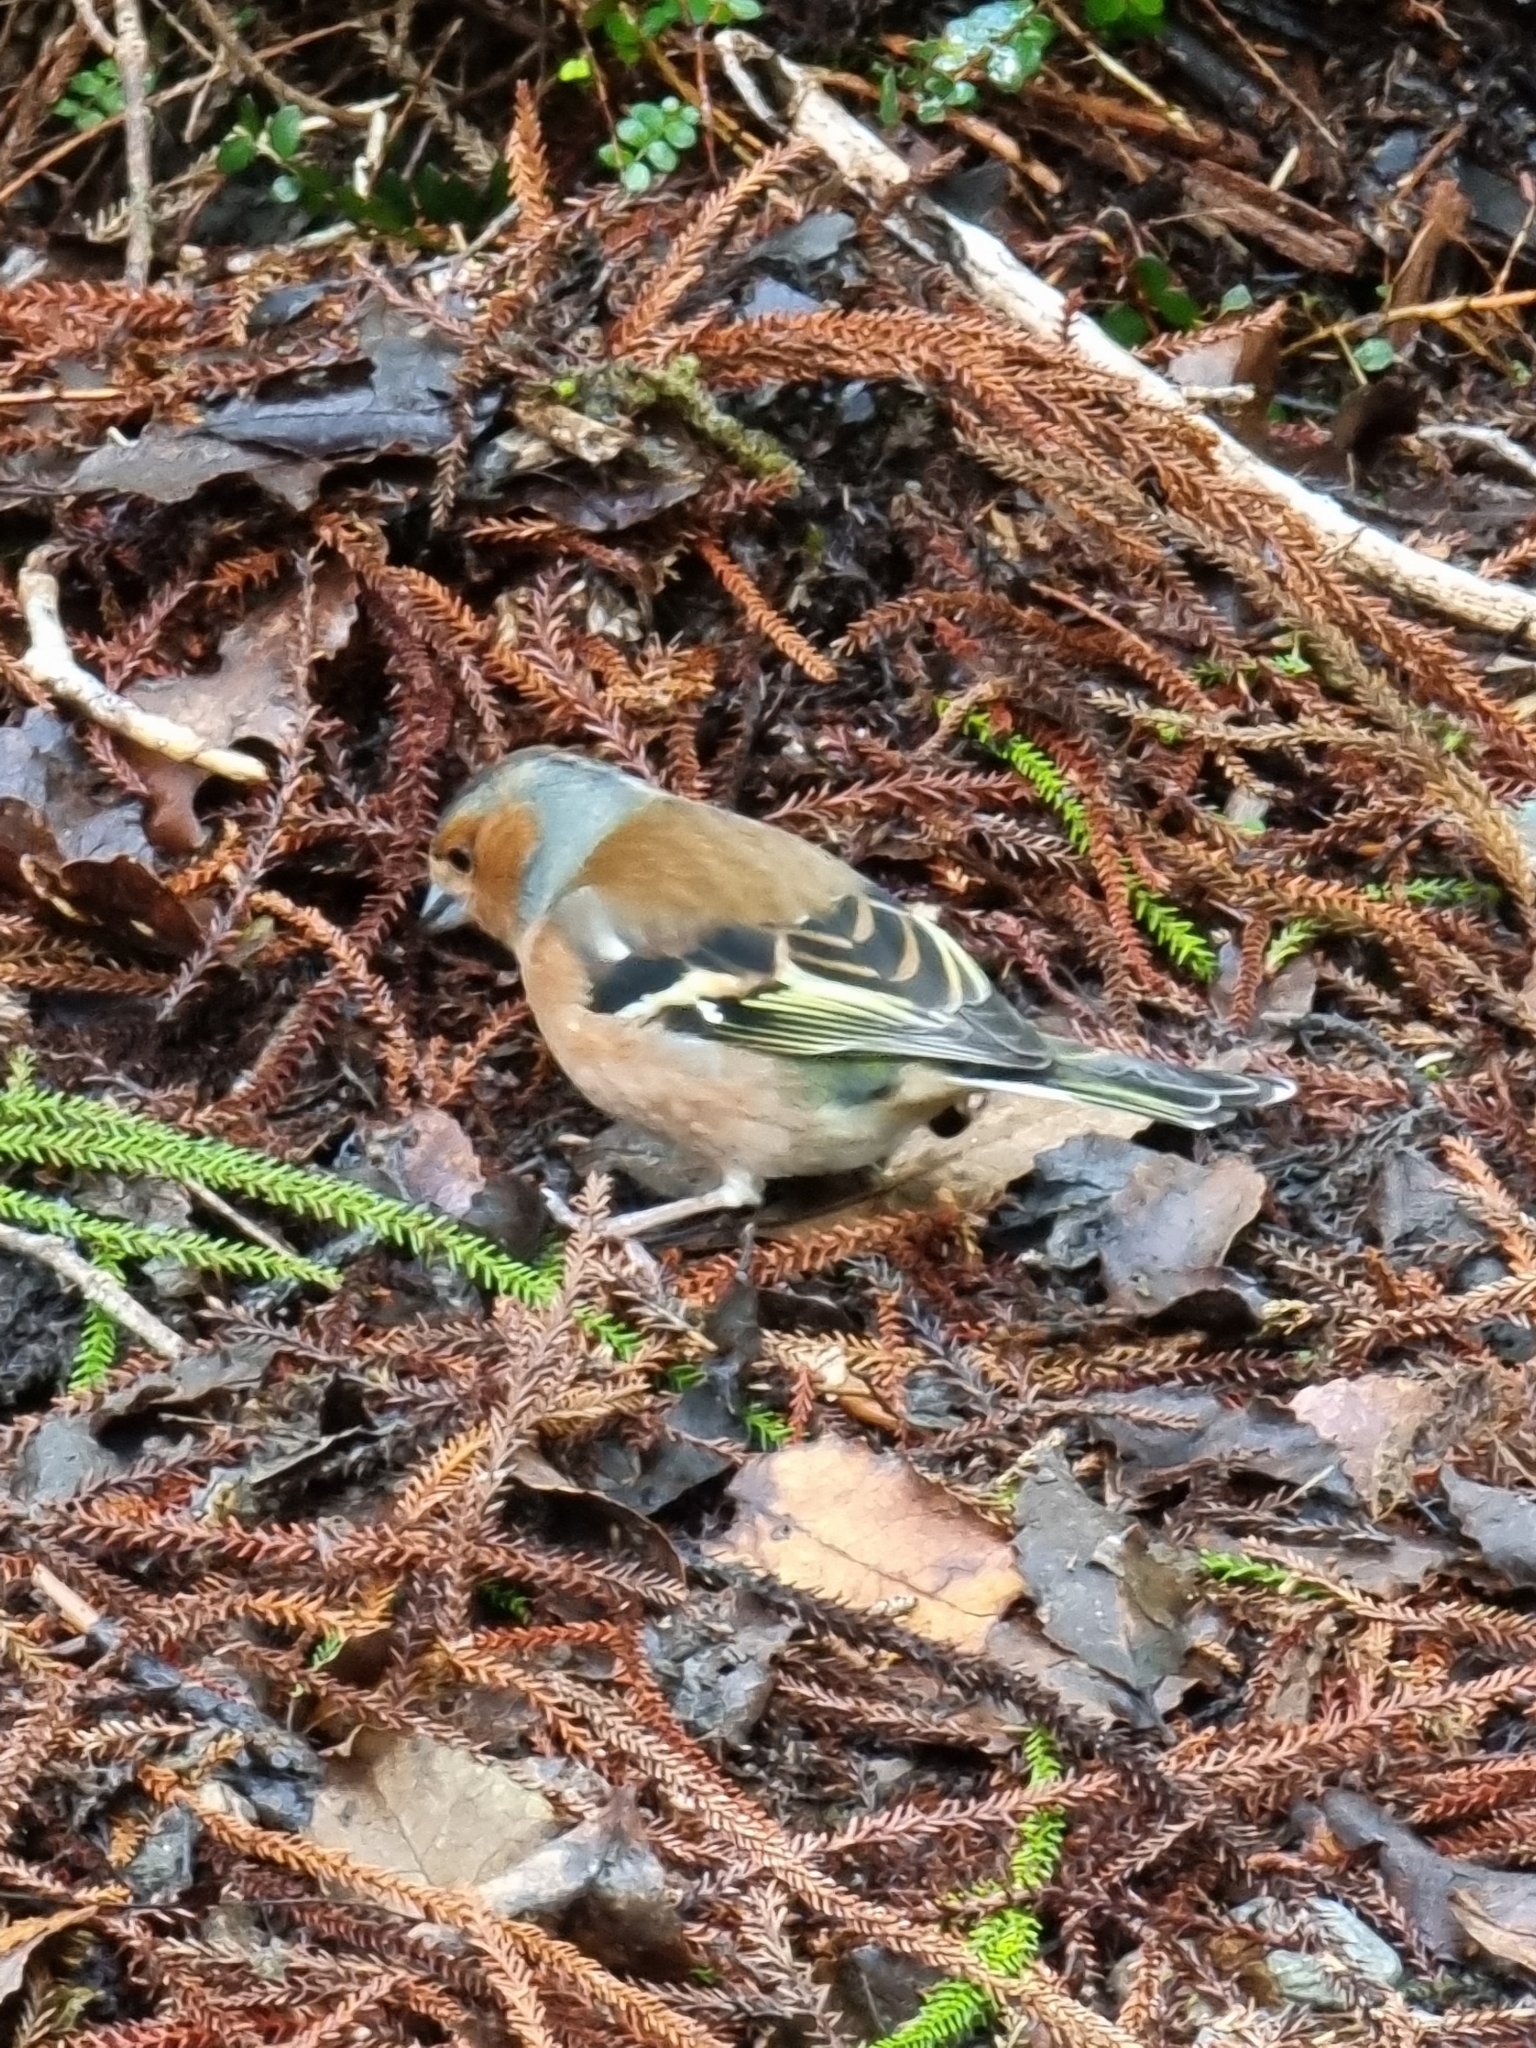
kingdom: Animalia
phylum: Chordata
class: Aves
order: Passeriformes
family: Fringillidae
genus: Fringilla
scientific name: Fringilla coelebs
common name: Common chaffinch
